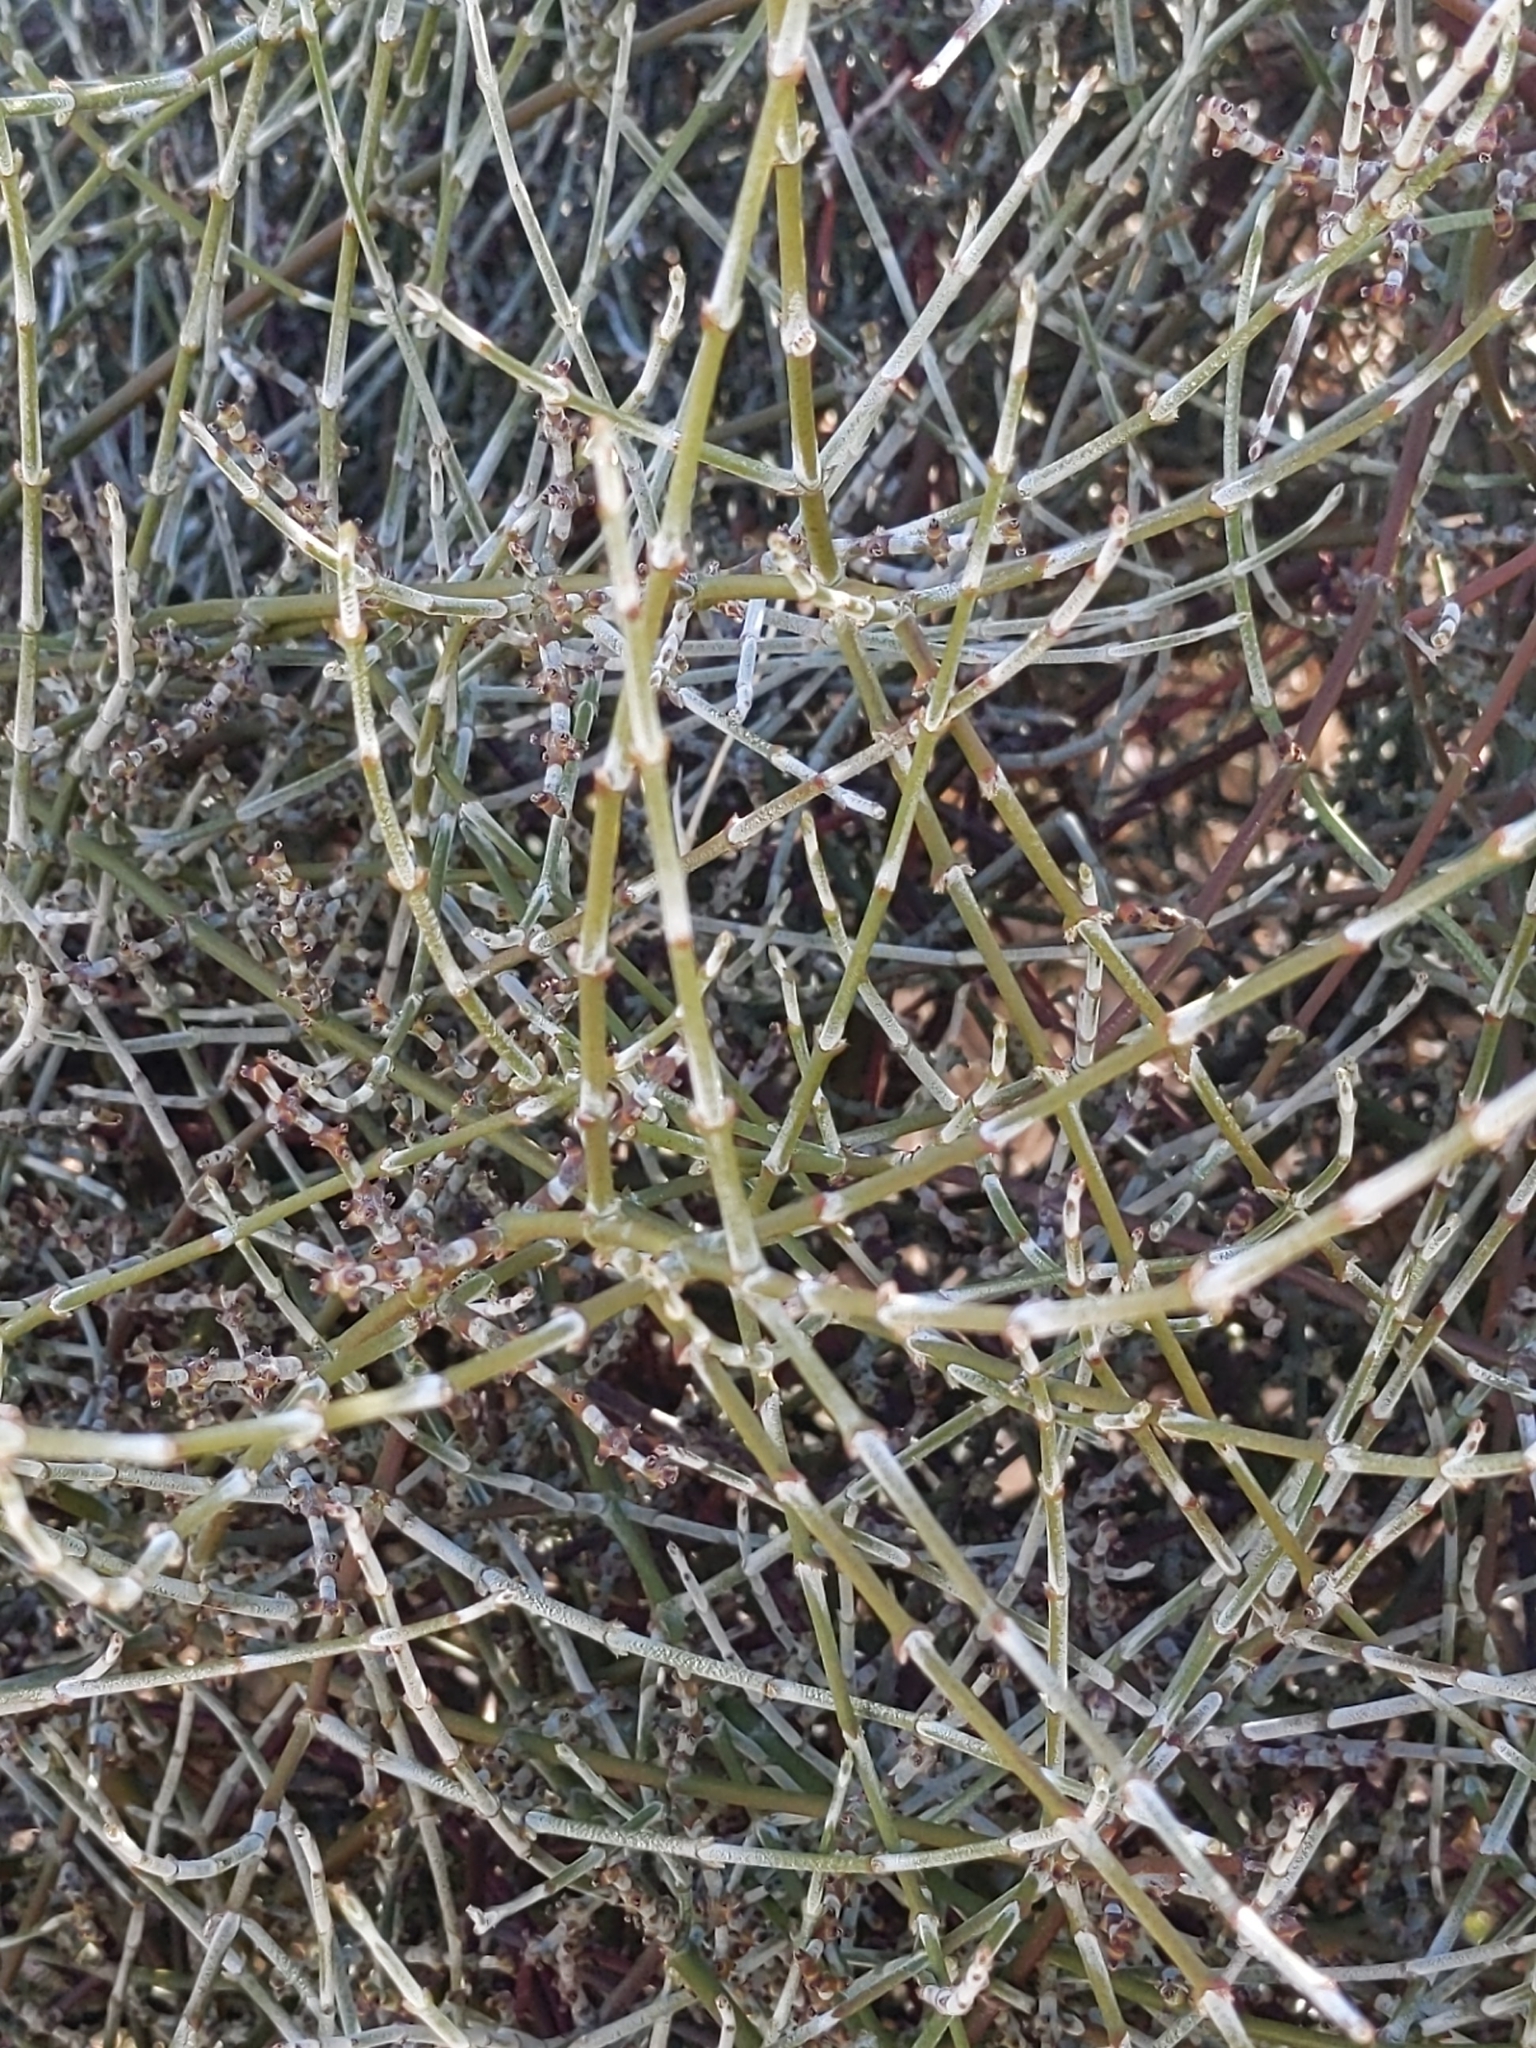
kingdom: Plantae
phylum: Tracheophyta
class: Magnoliopsida
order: Santalales
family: Viscaceae
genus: Phoradendron
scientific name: Phoradendron californicum
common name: Acacia mistletoe
